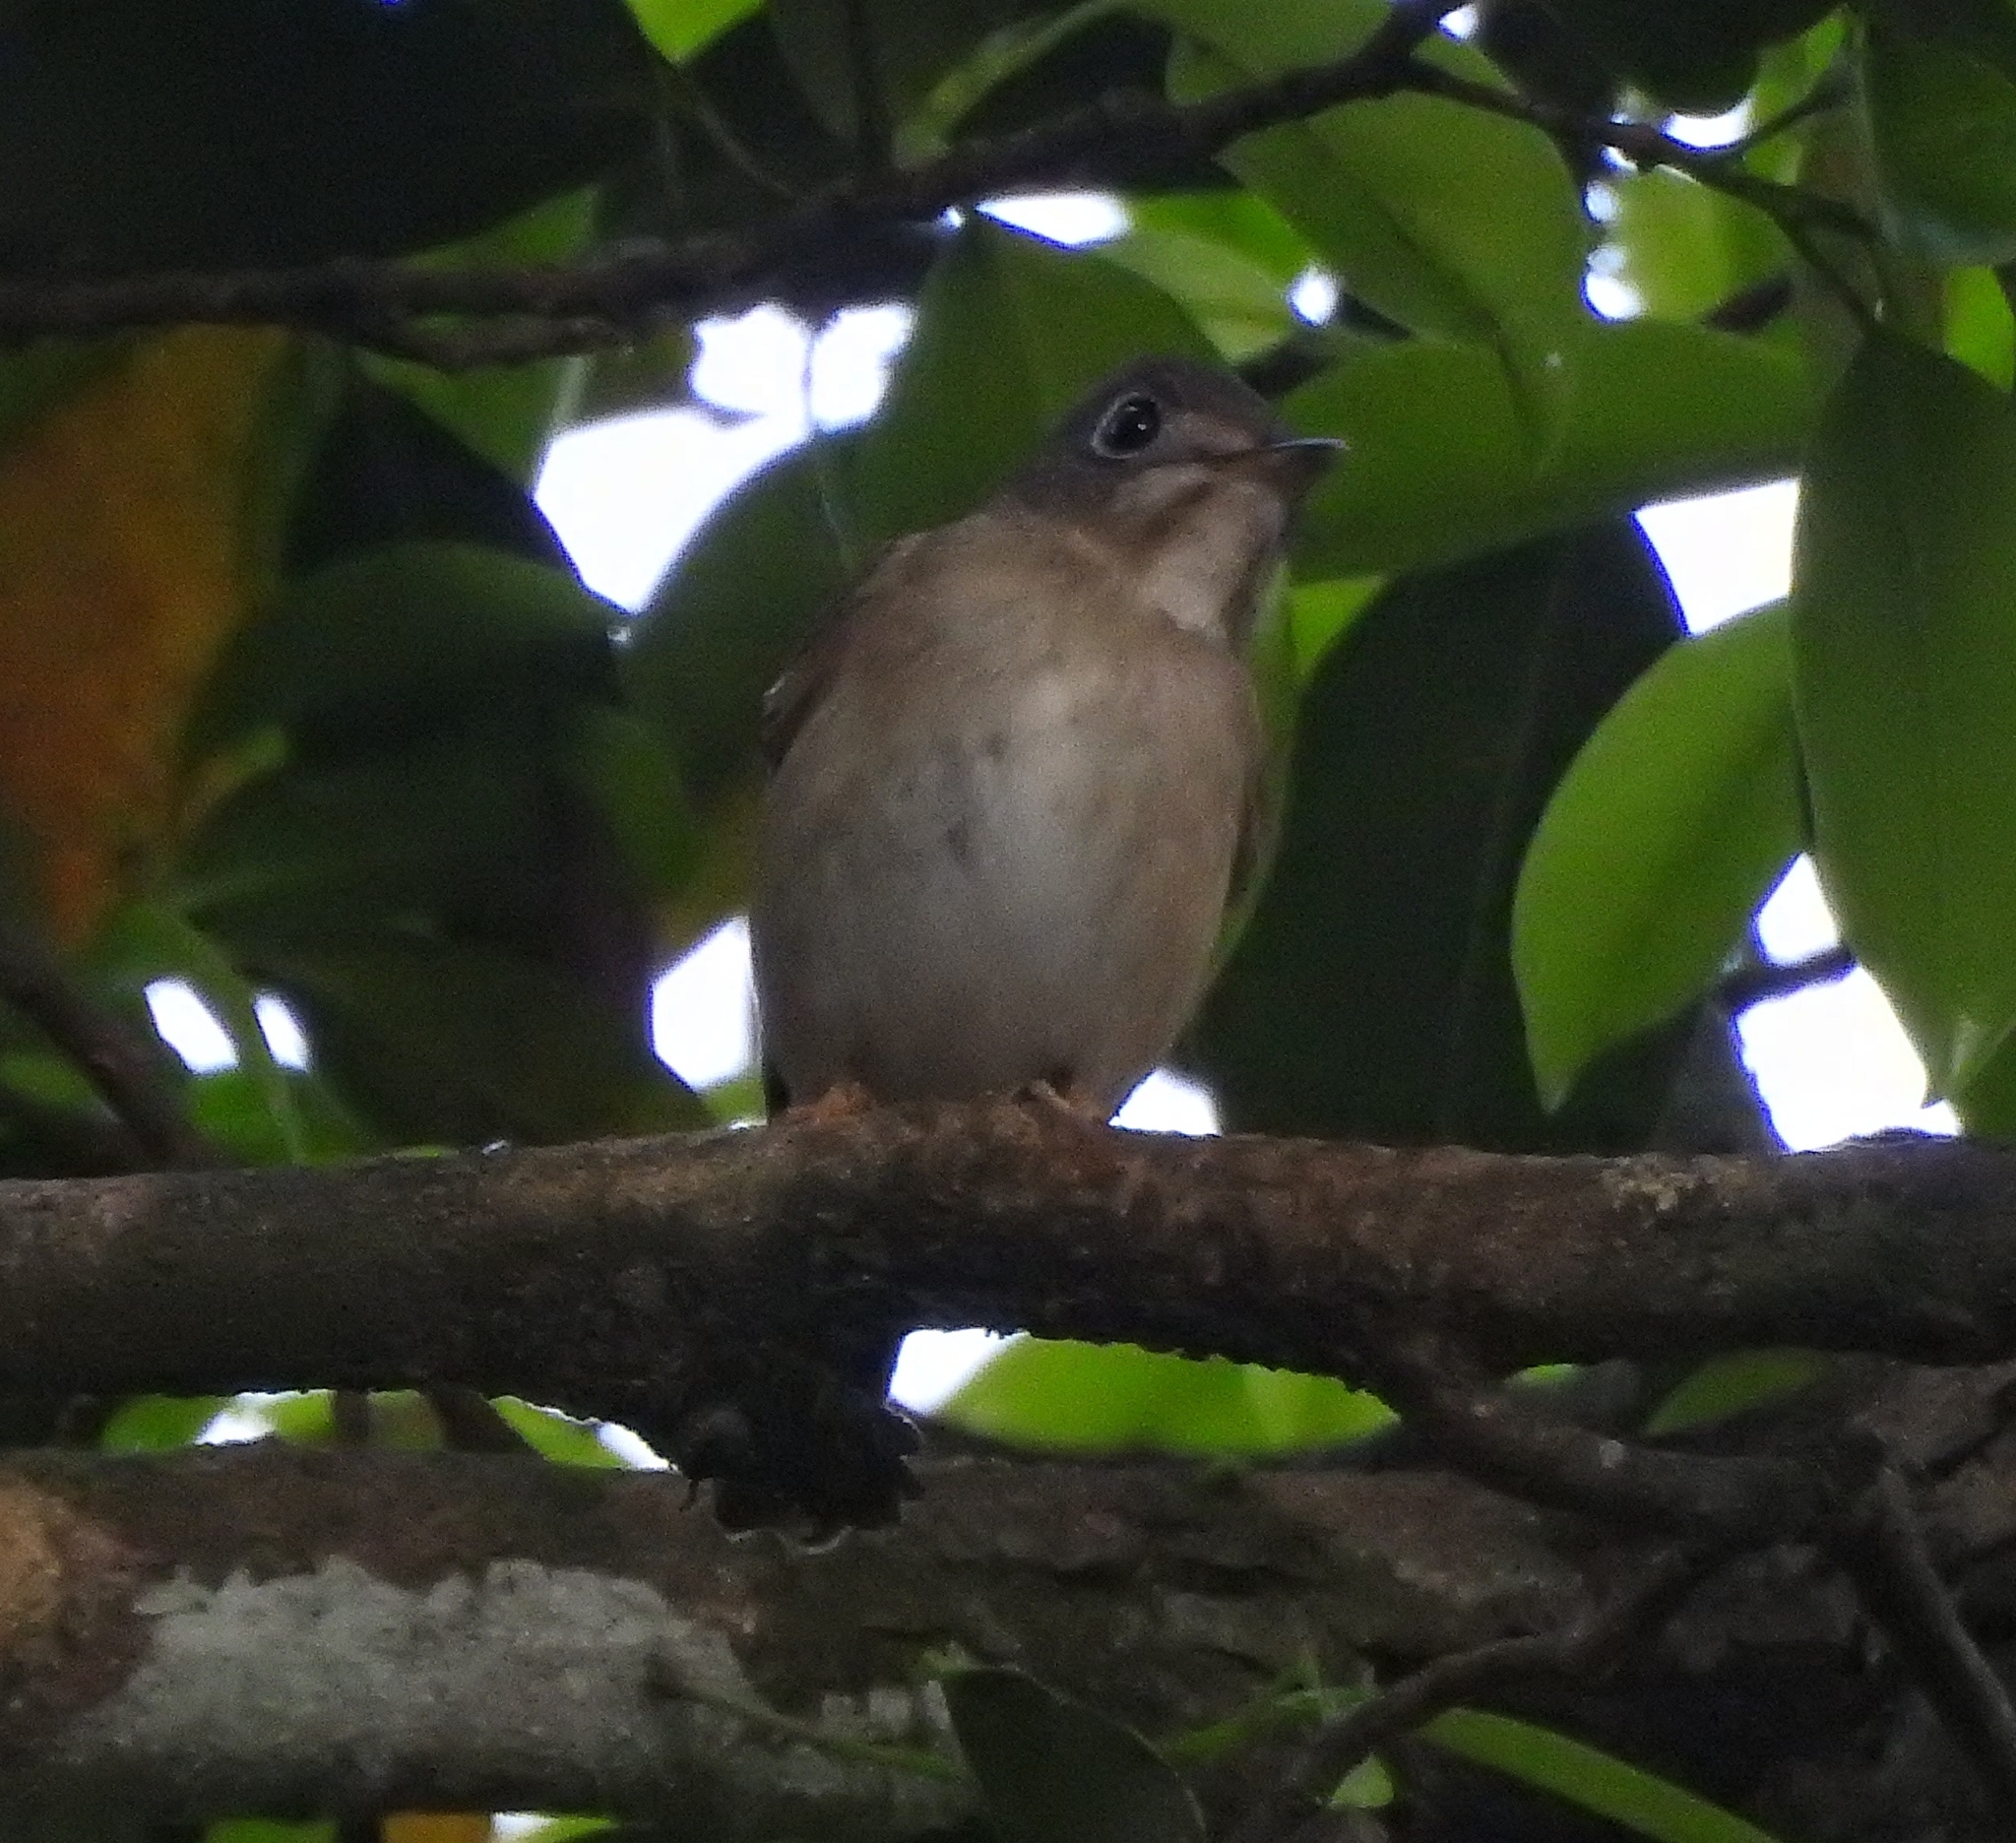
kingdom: Animalia
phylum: Chordata
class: Aves
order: Passeriformes
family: Muscicapidae
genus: Muscicapa
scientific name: Muscicapa muttui
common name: Brown-breasted flycatcher
